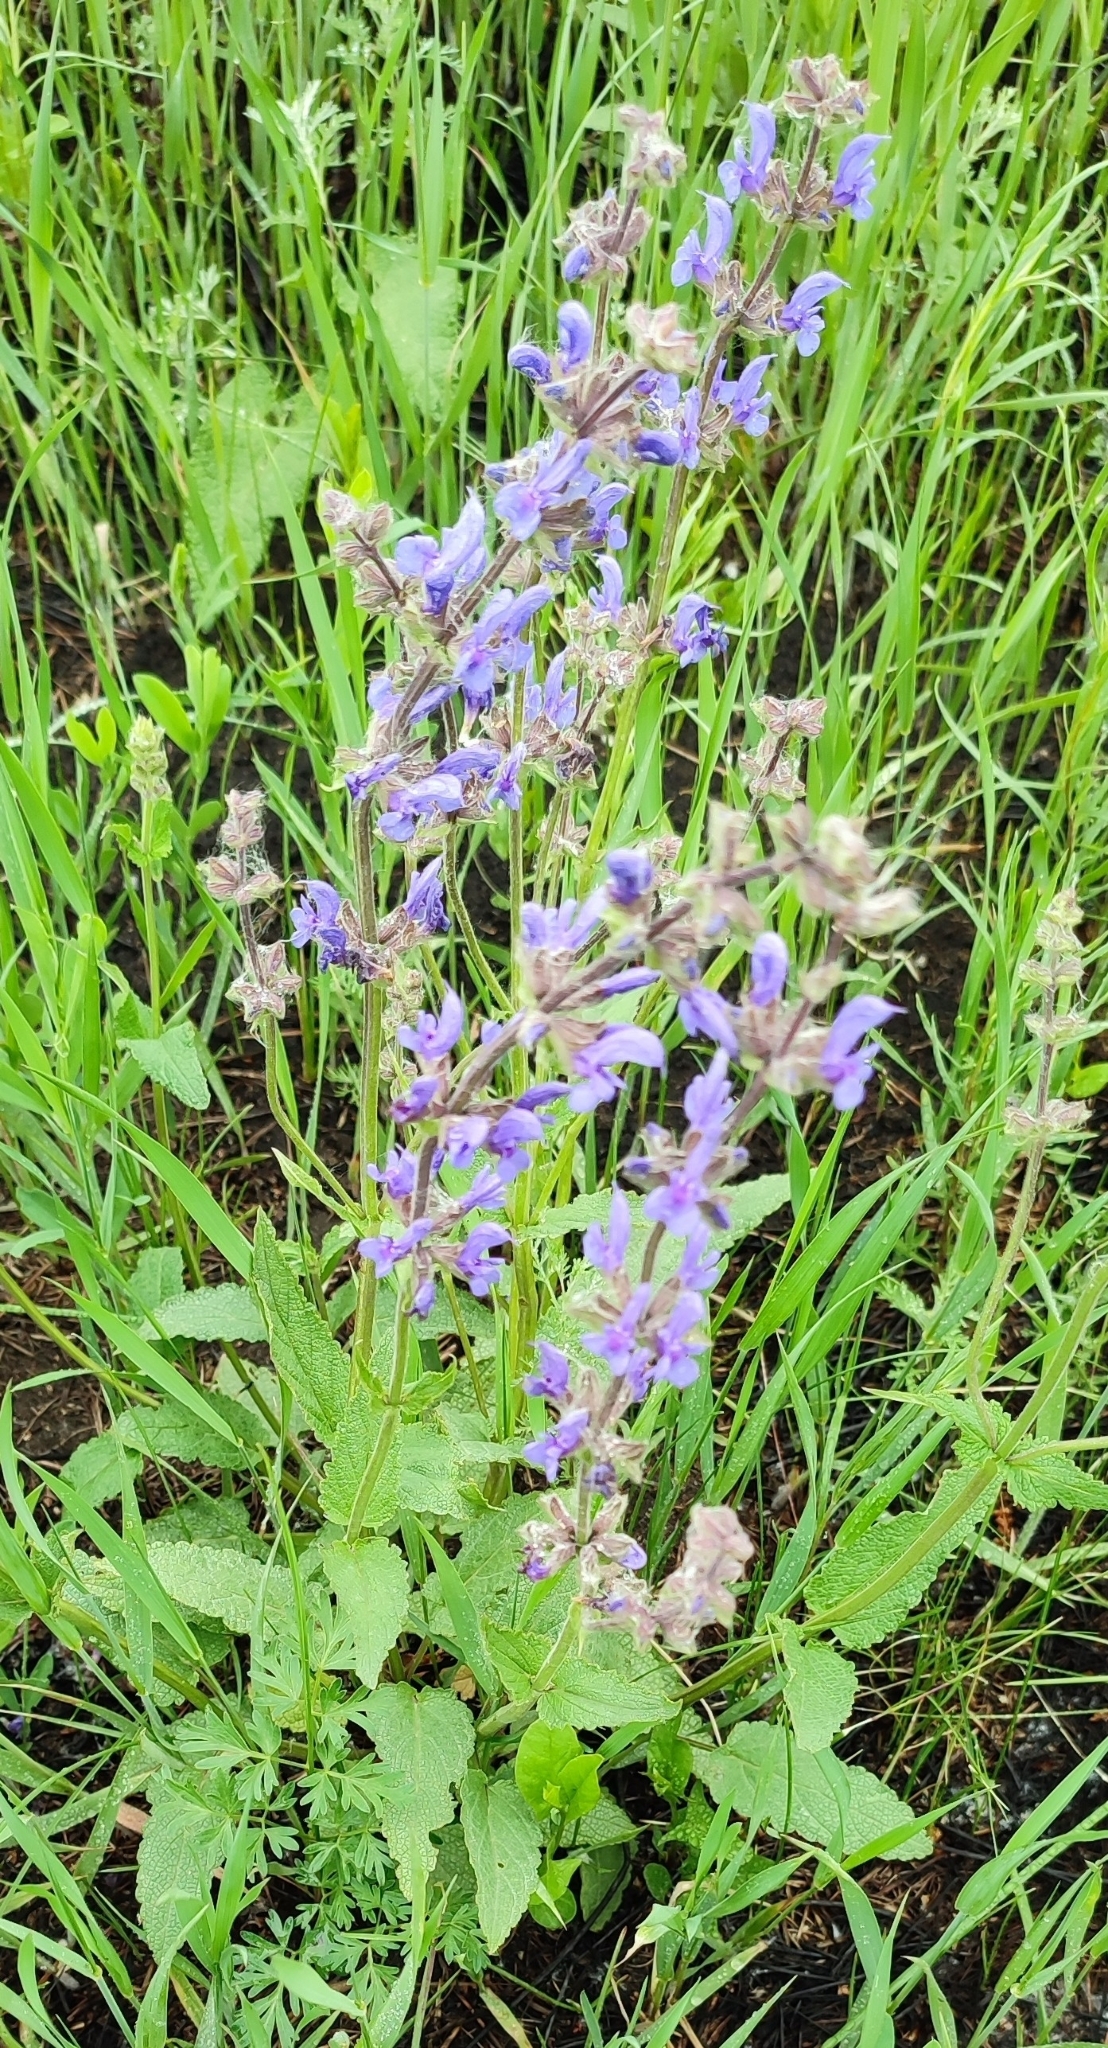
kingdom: Plantae
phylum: Tracheophyta
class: Magnoliopsida
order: Lamiales
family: Lamiaceae
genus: Salvia
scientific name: Salvia dumetorum
